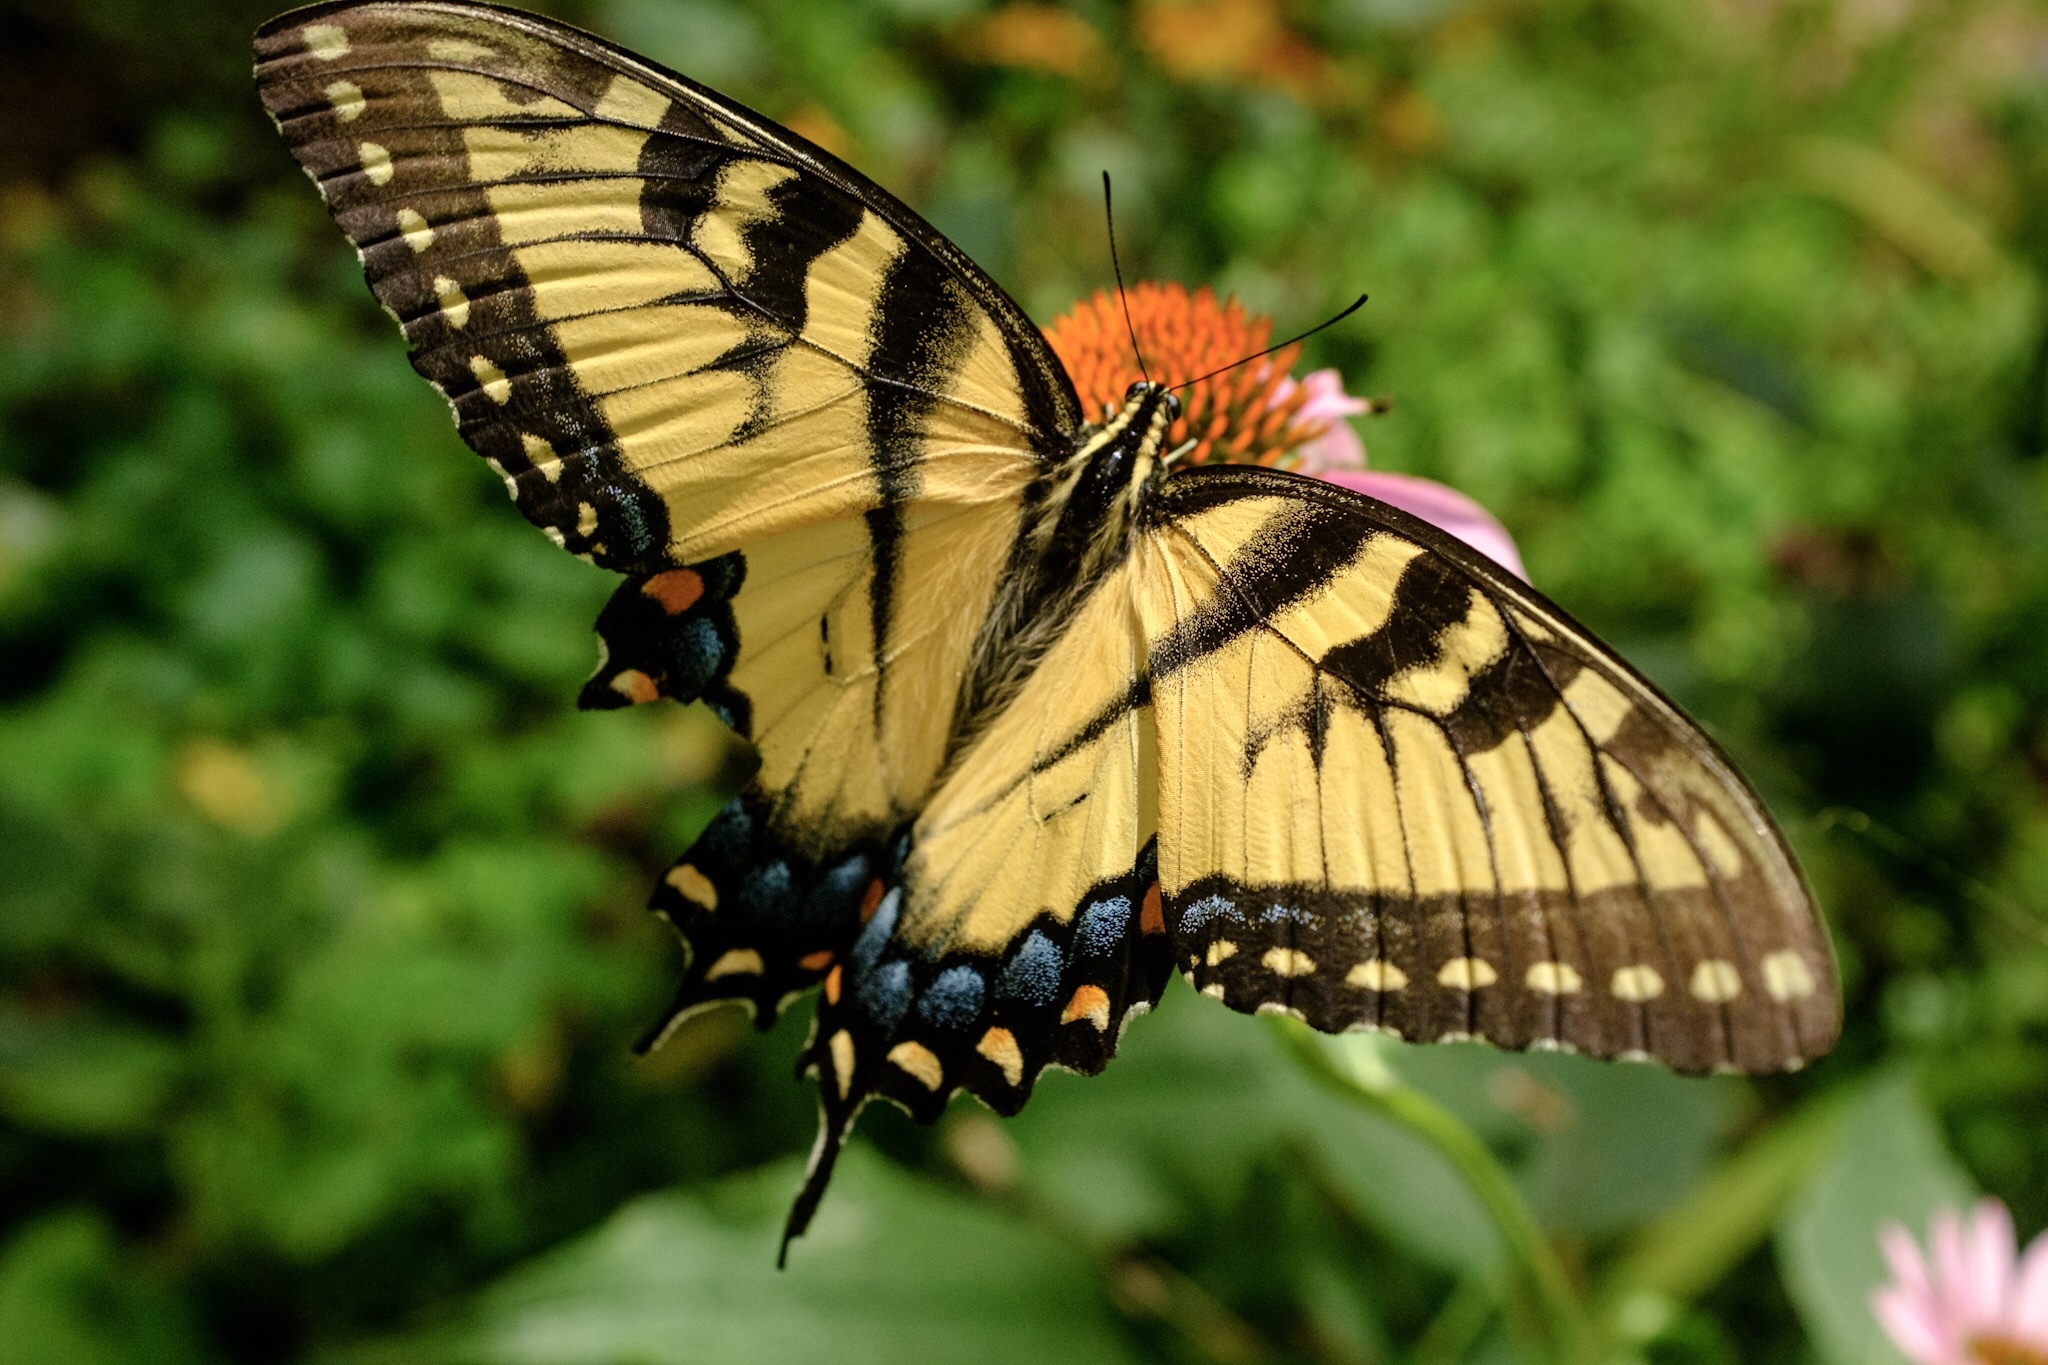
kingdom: Animalia
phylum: Arthropoda
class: Insecta
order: Lepidoptera
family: Papilionidae
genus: Papilio
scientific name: Papilio glaucus
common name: Tiger swallowtail
